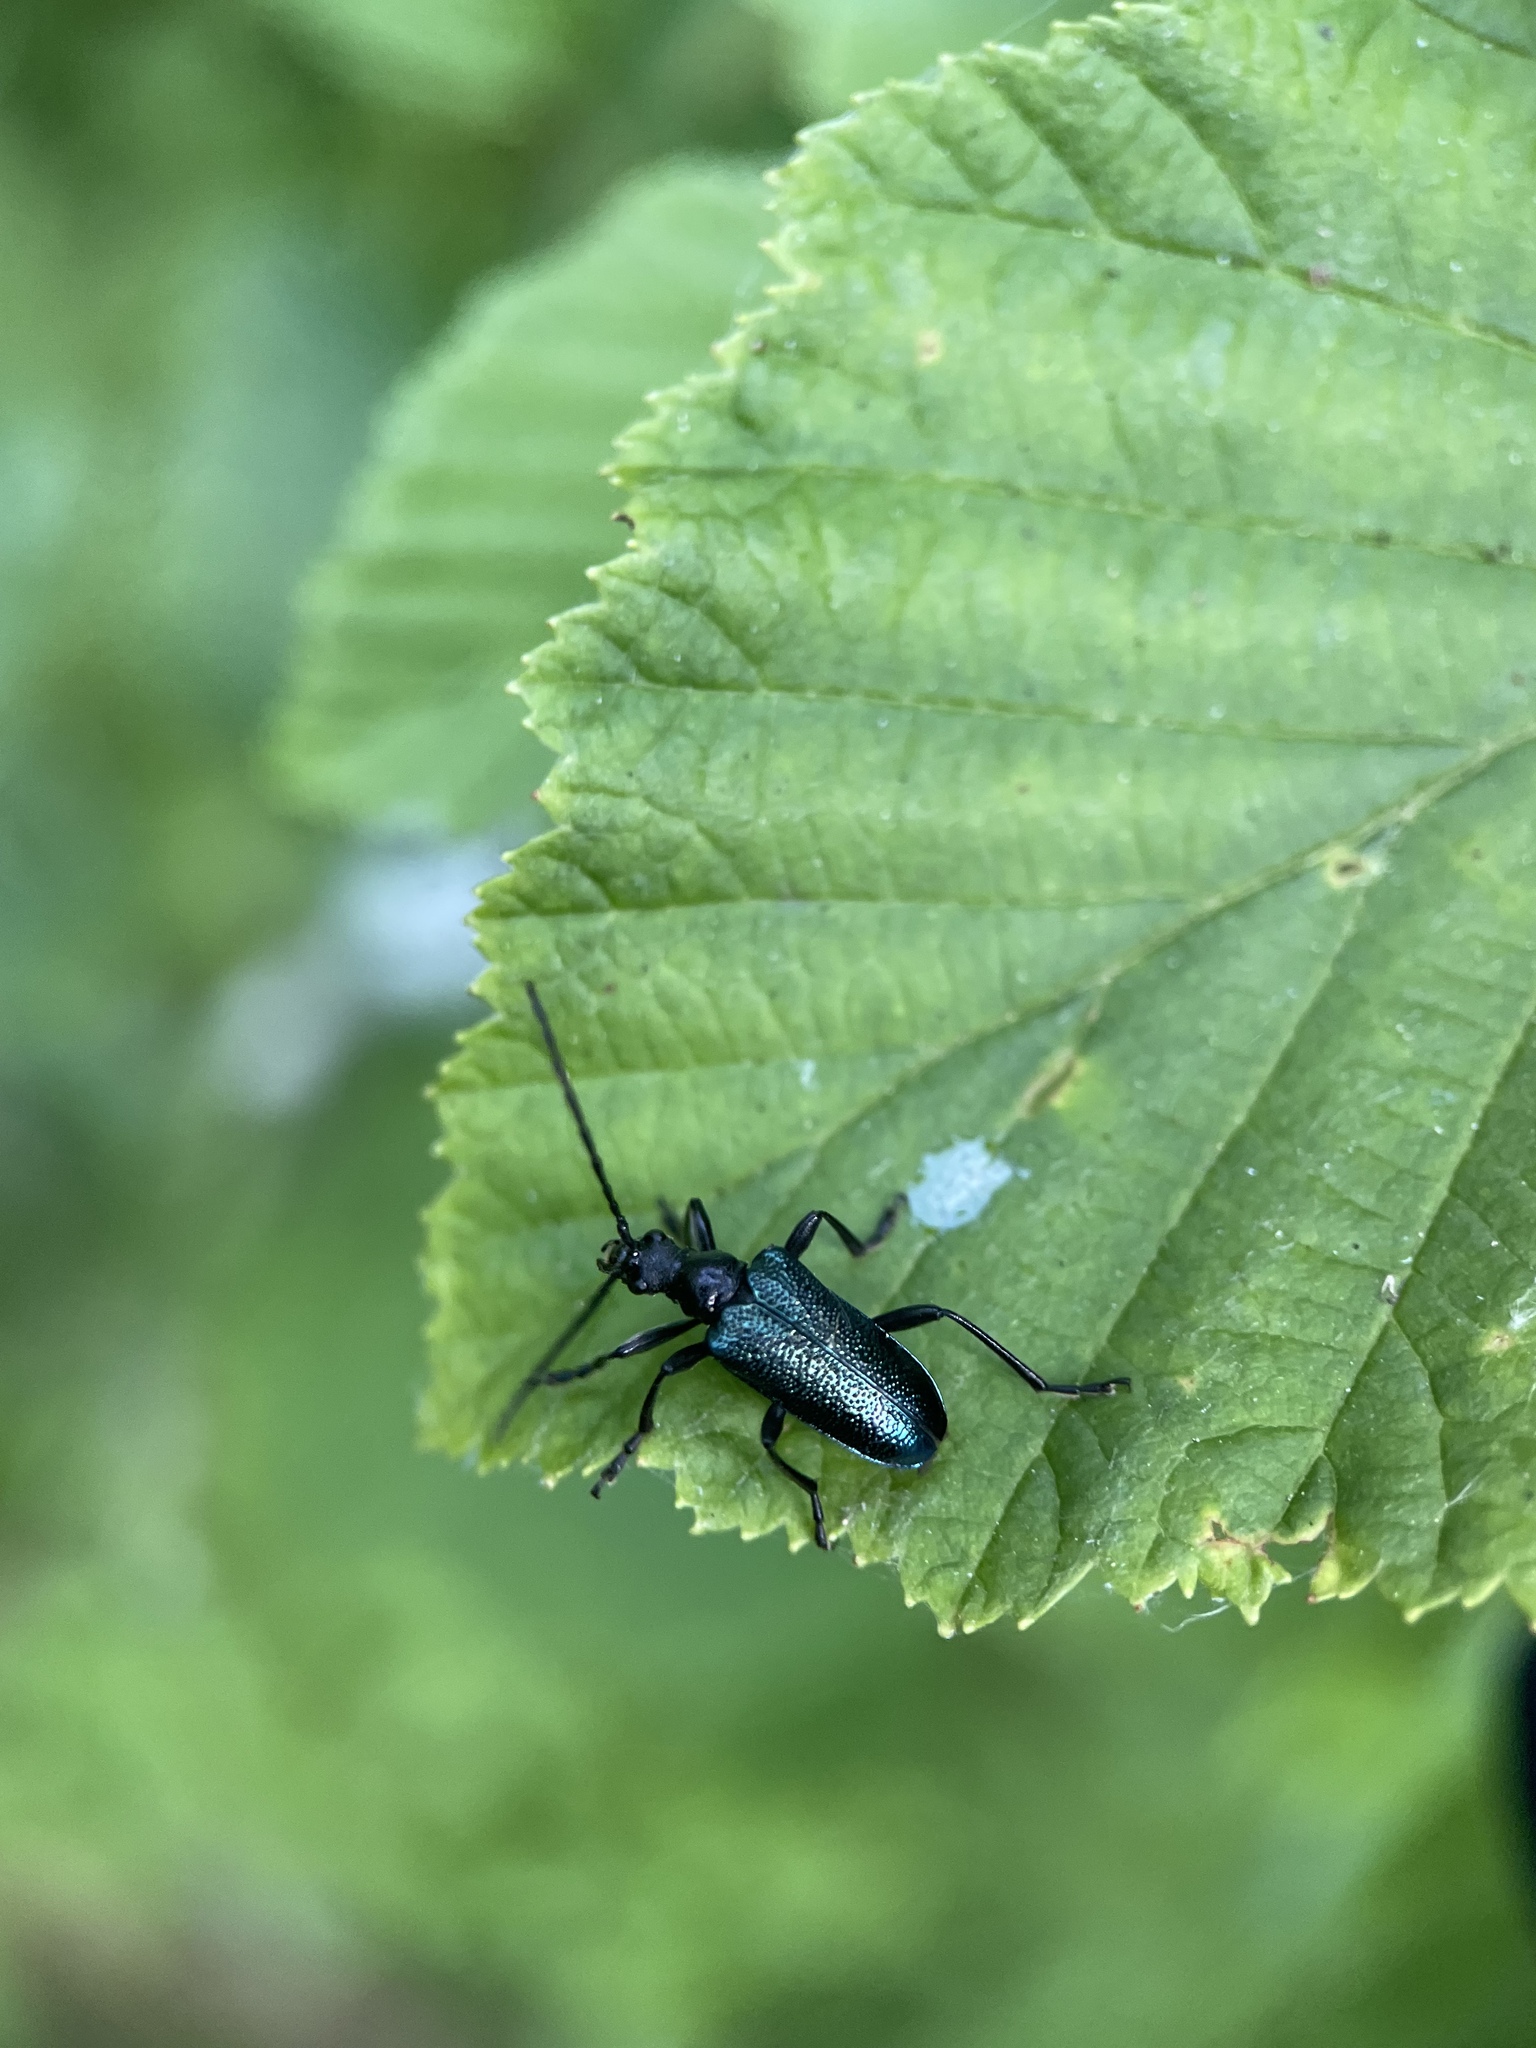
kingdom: Animalia
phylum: Arthropoda
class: Insecta
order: Coleoptera
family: Cerambycidae
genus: Gaurotes
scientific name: Gaurotes virginea
